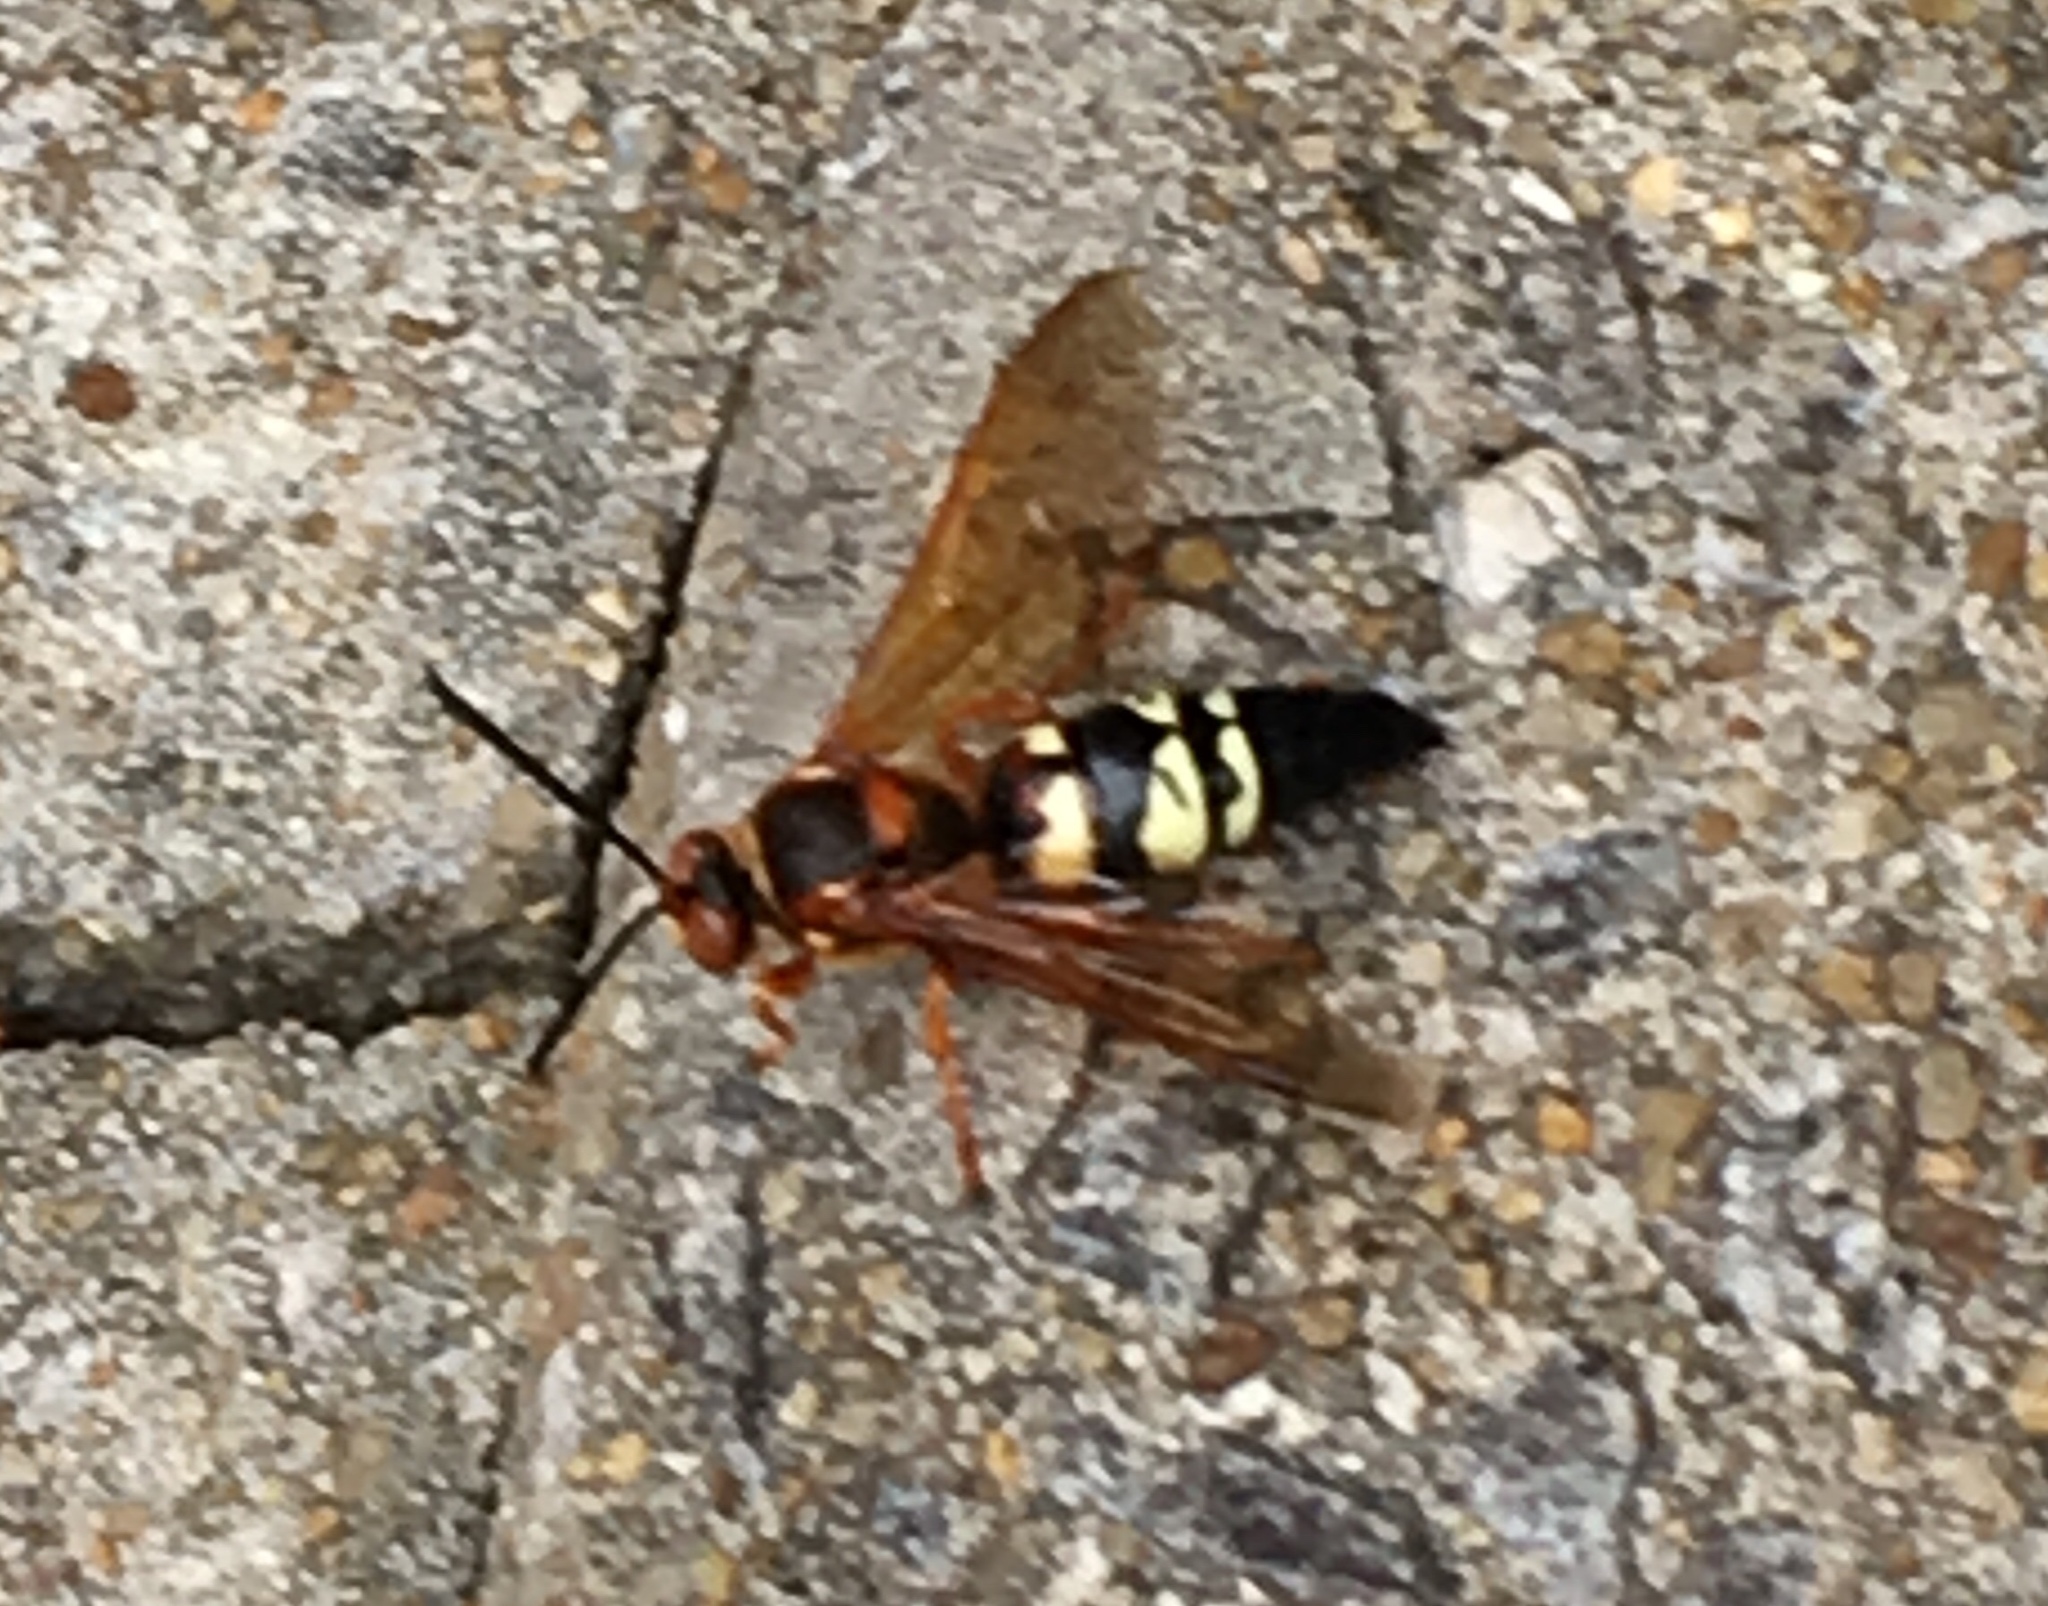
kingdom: Animalia
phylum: Arthropoda
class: Insecta
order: Hymenoptera
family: Crabronidae
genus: Sphecius
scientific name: Sphecius speciosus
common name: Cicada killer
